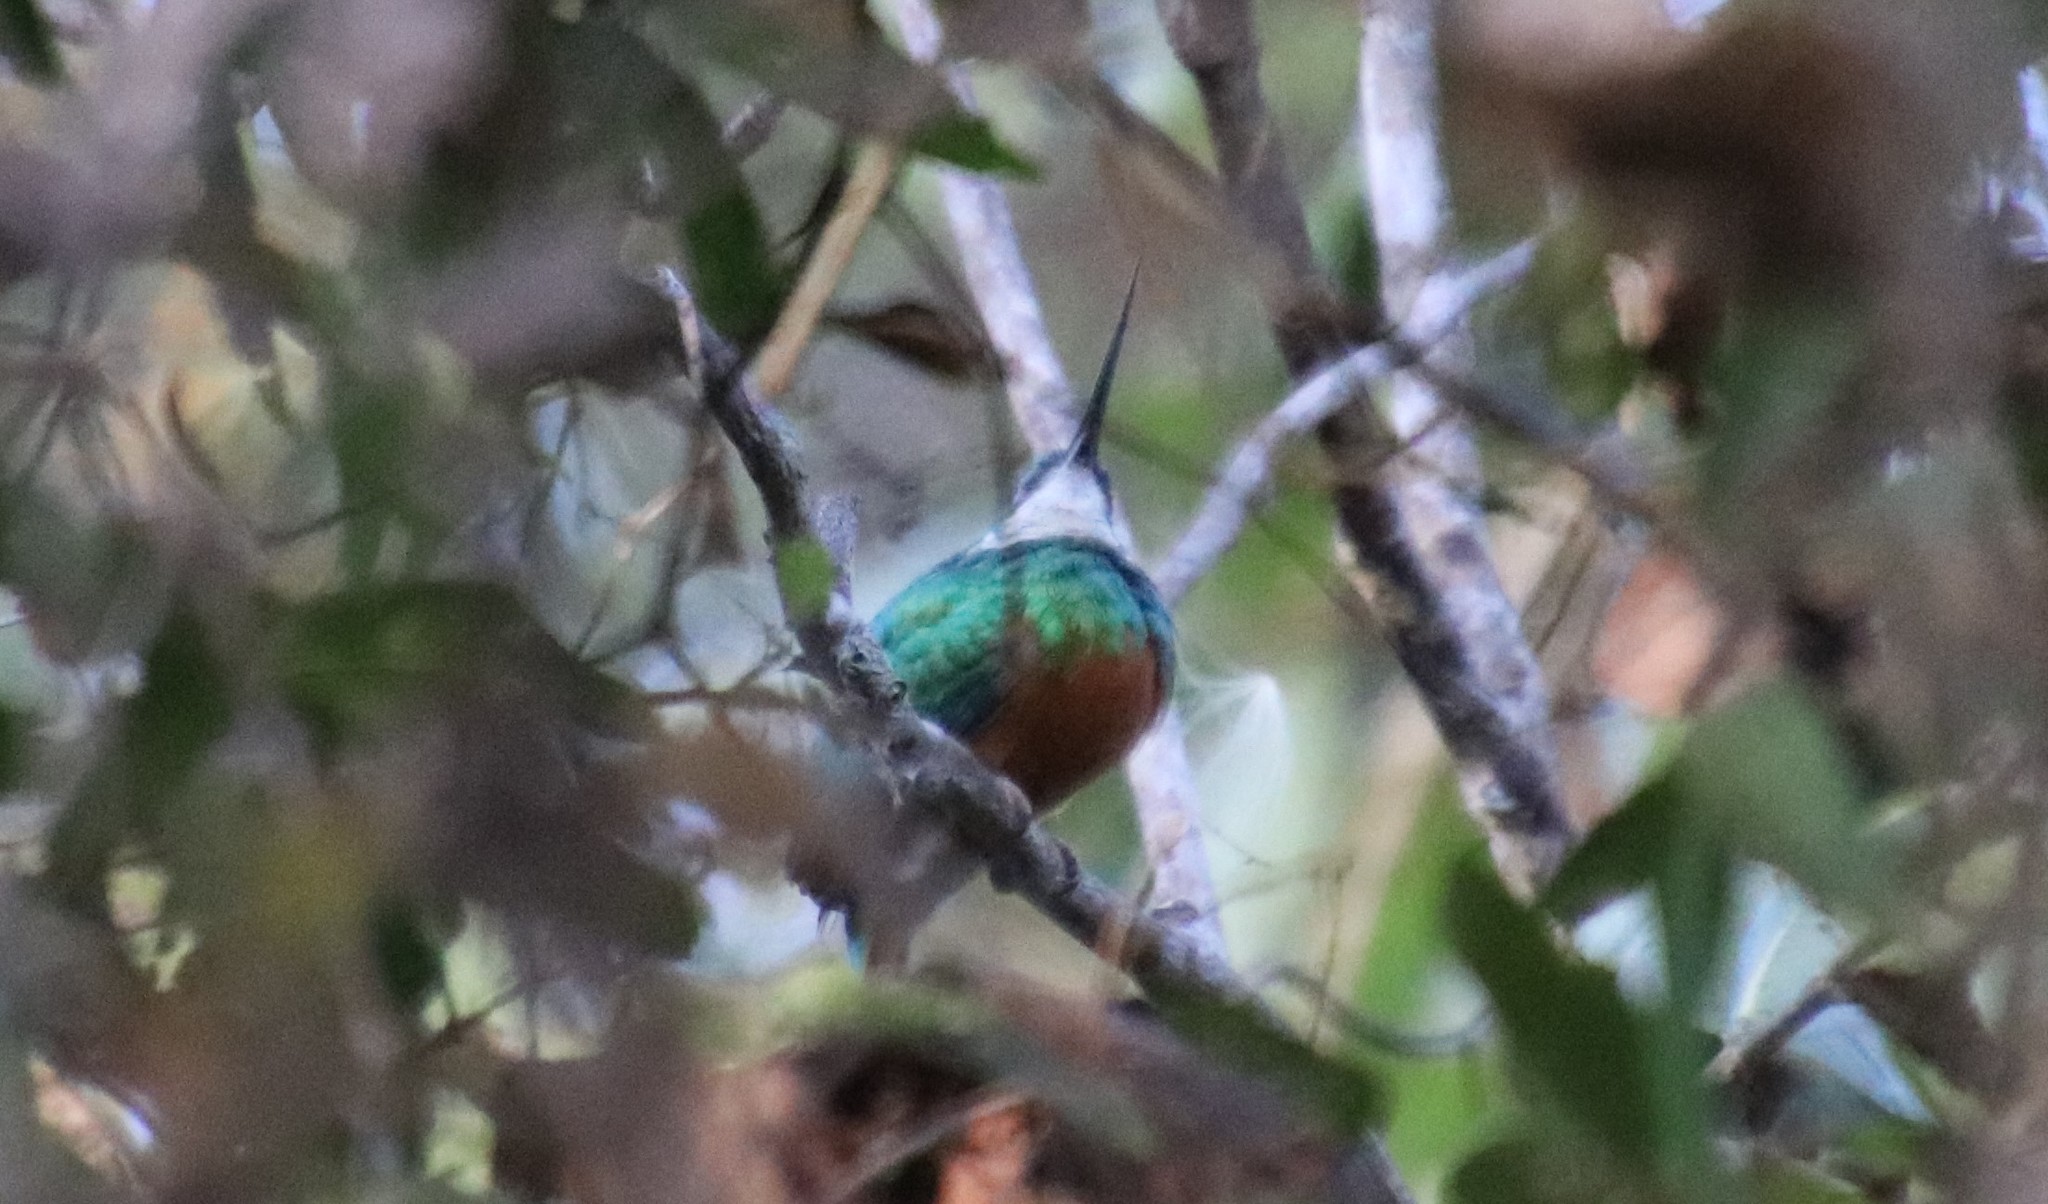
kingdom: Animalia
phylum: Chordata
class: Aves
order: Piciformes
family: Galbulidae
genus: Galbula
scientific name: Galbula ruficauda
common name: Rufous-tailed jacamar
